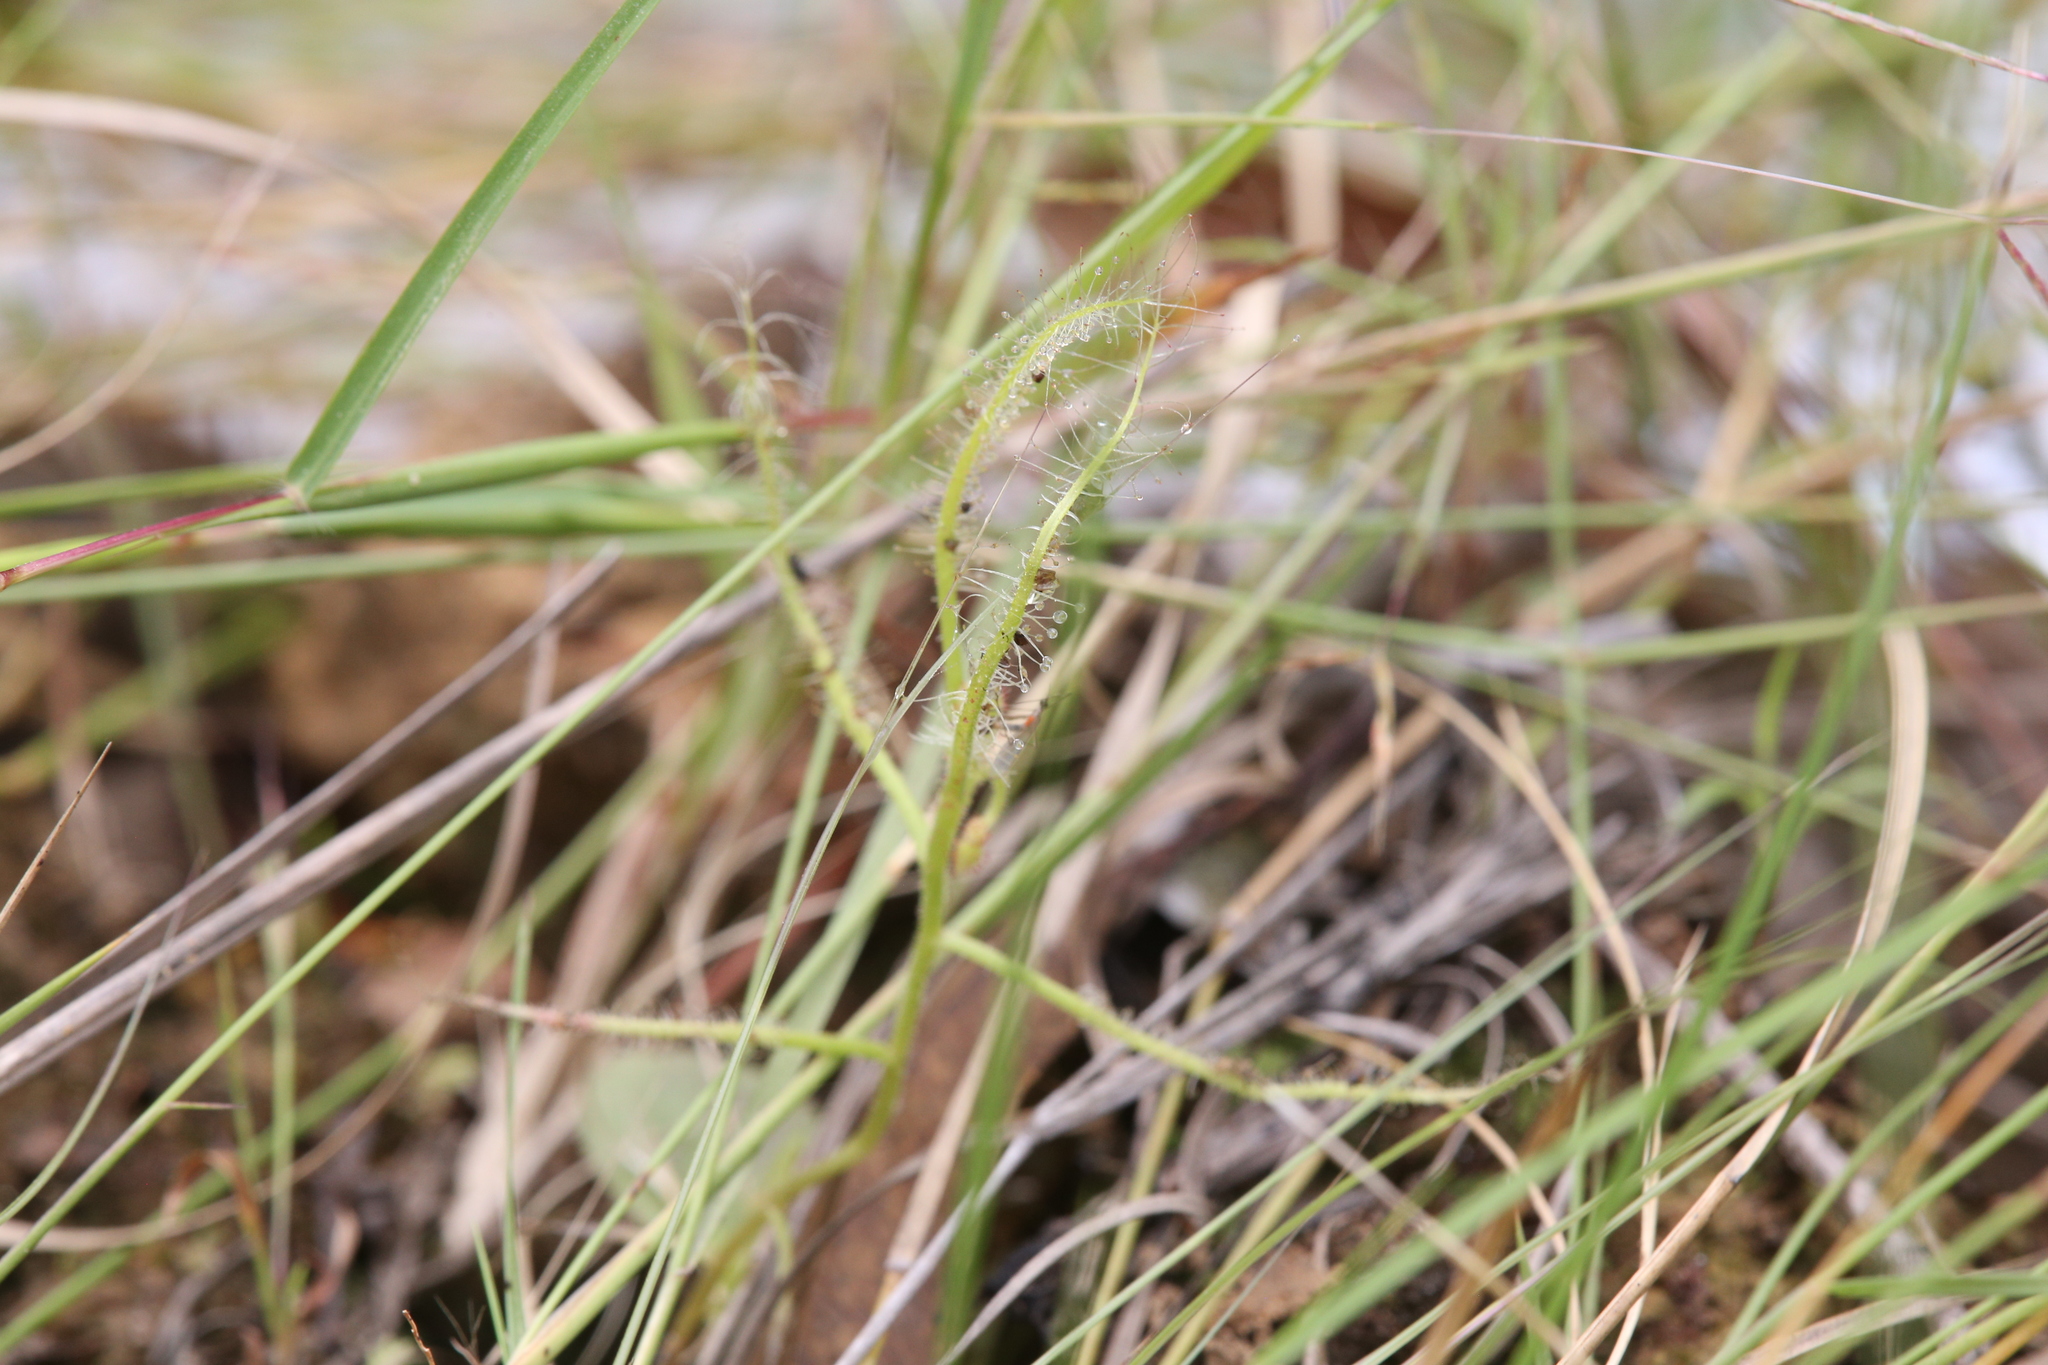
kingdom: Plantae
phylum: Tracheophyta
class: Magnoliopsida
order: Caryophyllales
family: Droseraceae
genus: Drosera
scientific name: Drosera indica
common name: Indian sundew
